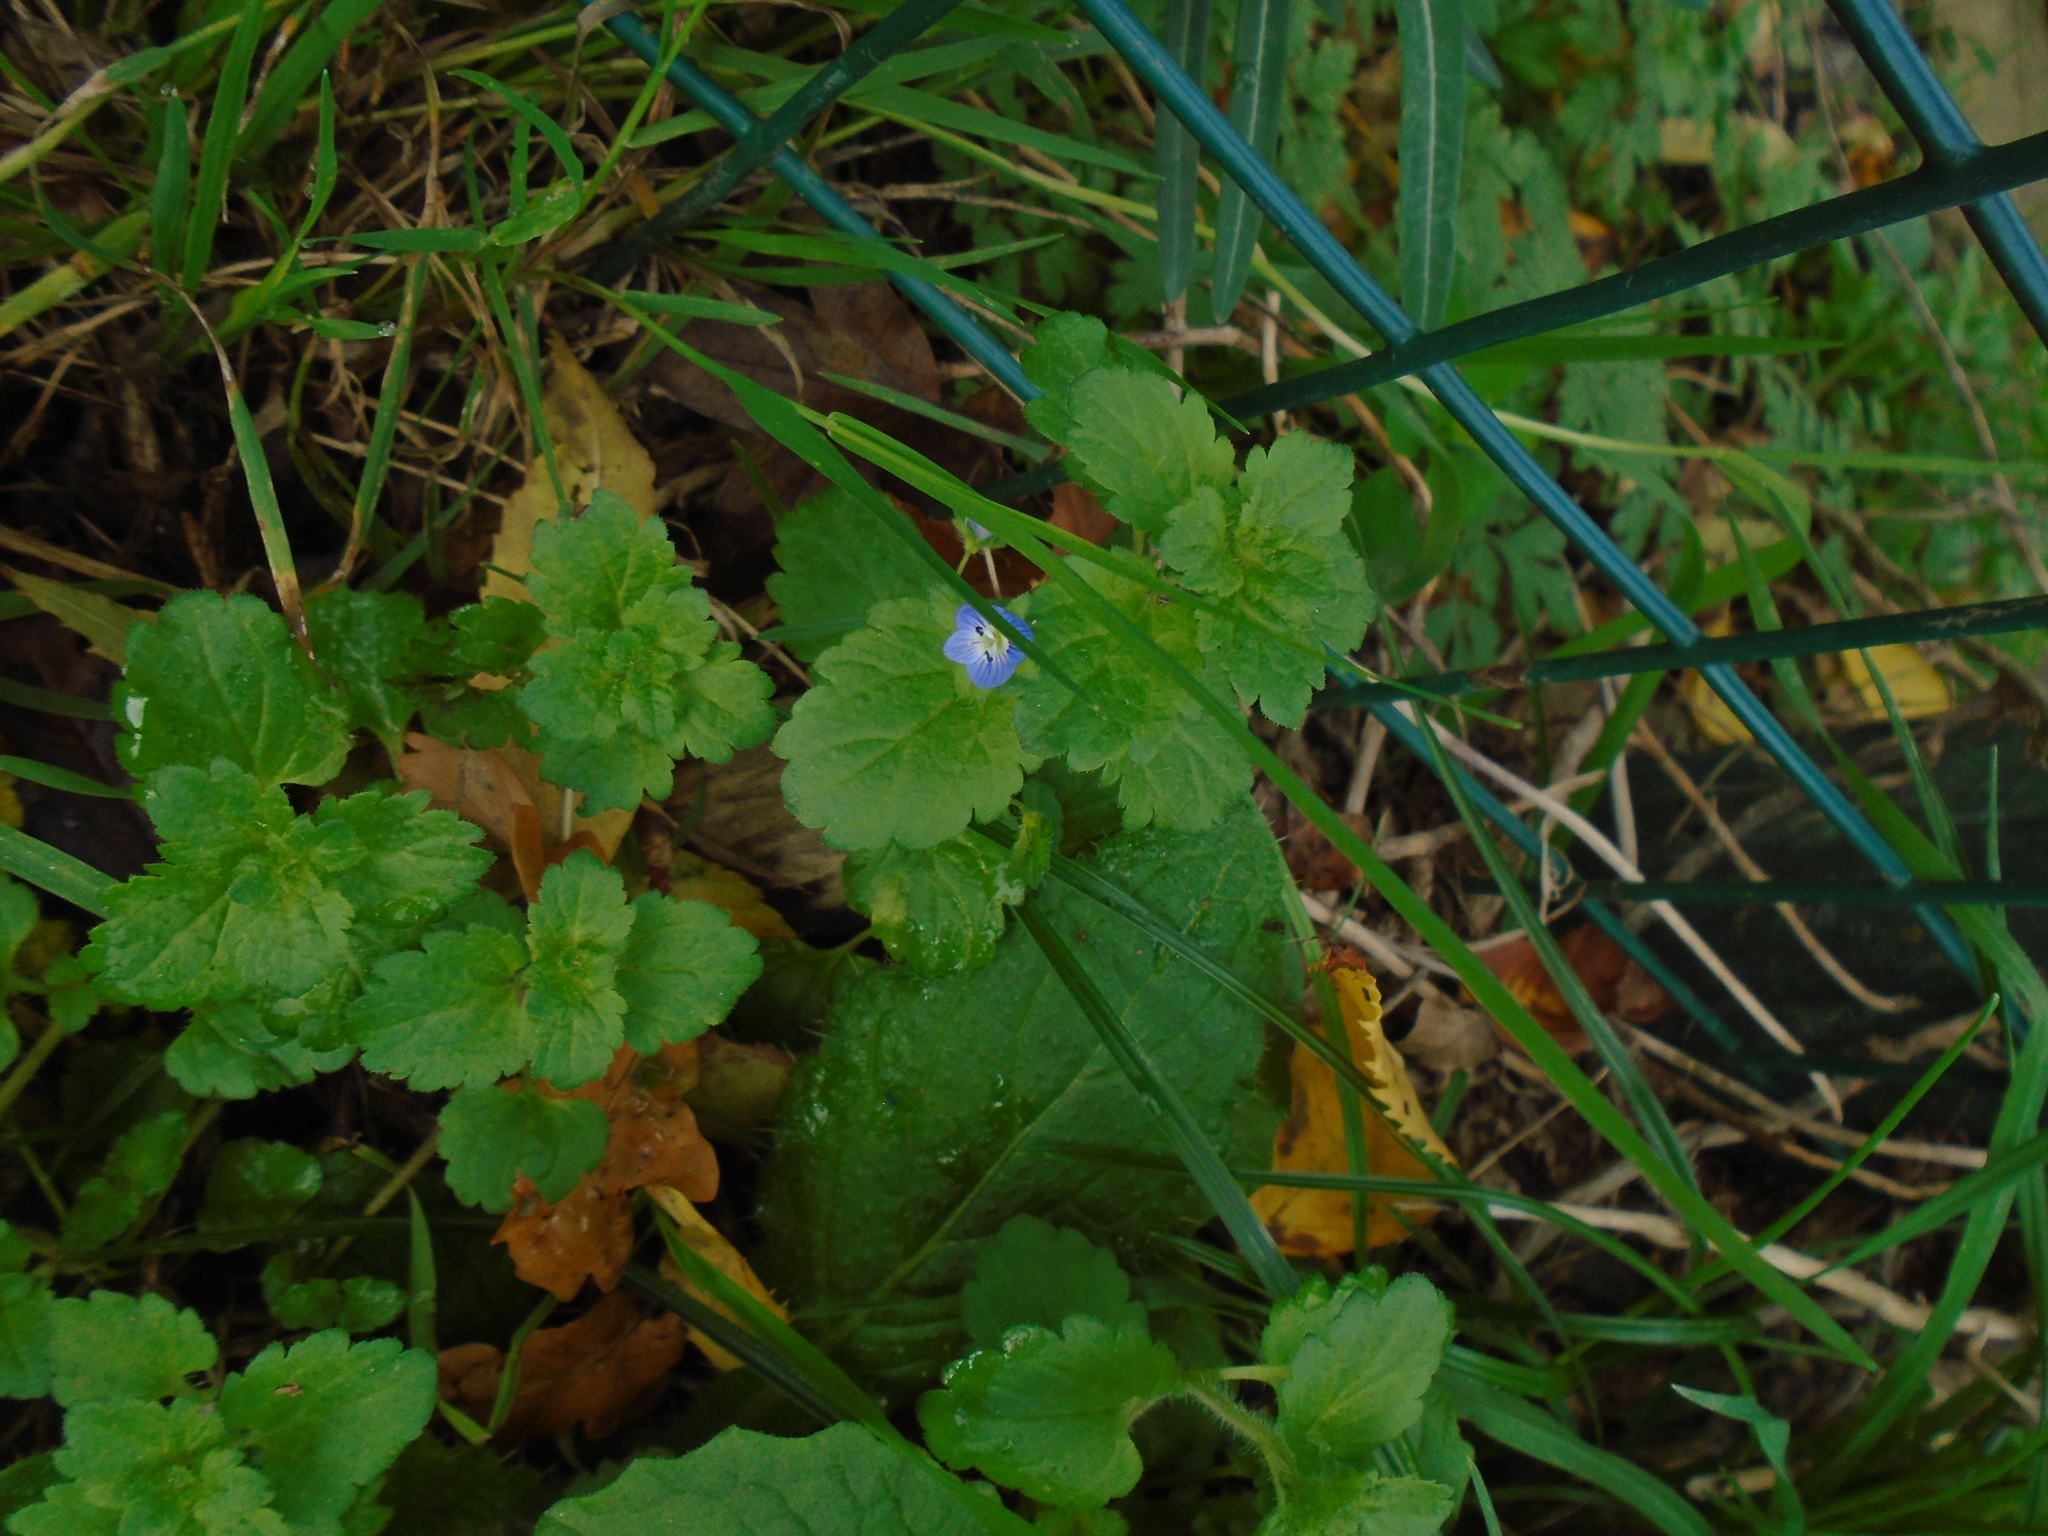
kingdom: Plantae
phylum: Tracheophyta
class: Magnoliopsida
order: Lamiales
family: Plantaginaceae
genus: Veronica
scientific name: Veronica persica
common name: Common field-speedwell
